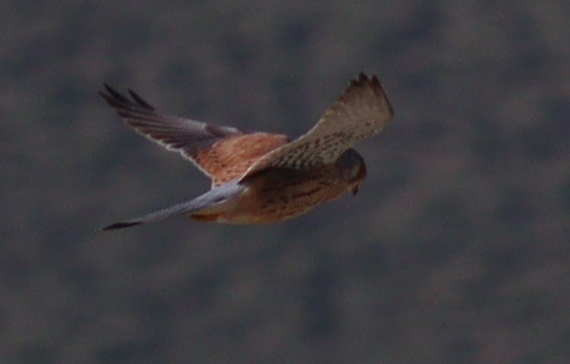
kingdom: Animalia
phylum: Chordata
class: Aves
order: Falconiformes
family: Falconidae
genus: Falco
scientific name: Falco tinnunculus
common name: Common kestrel
